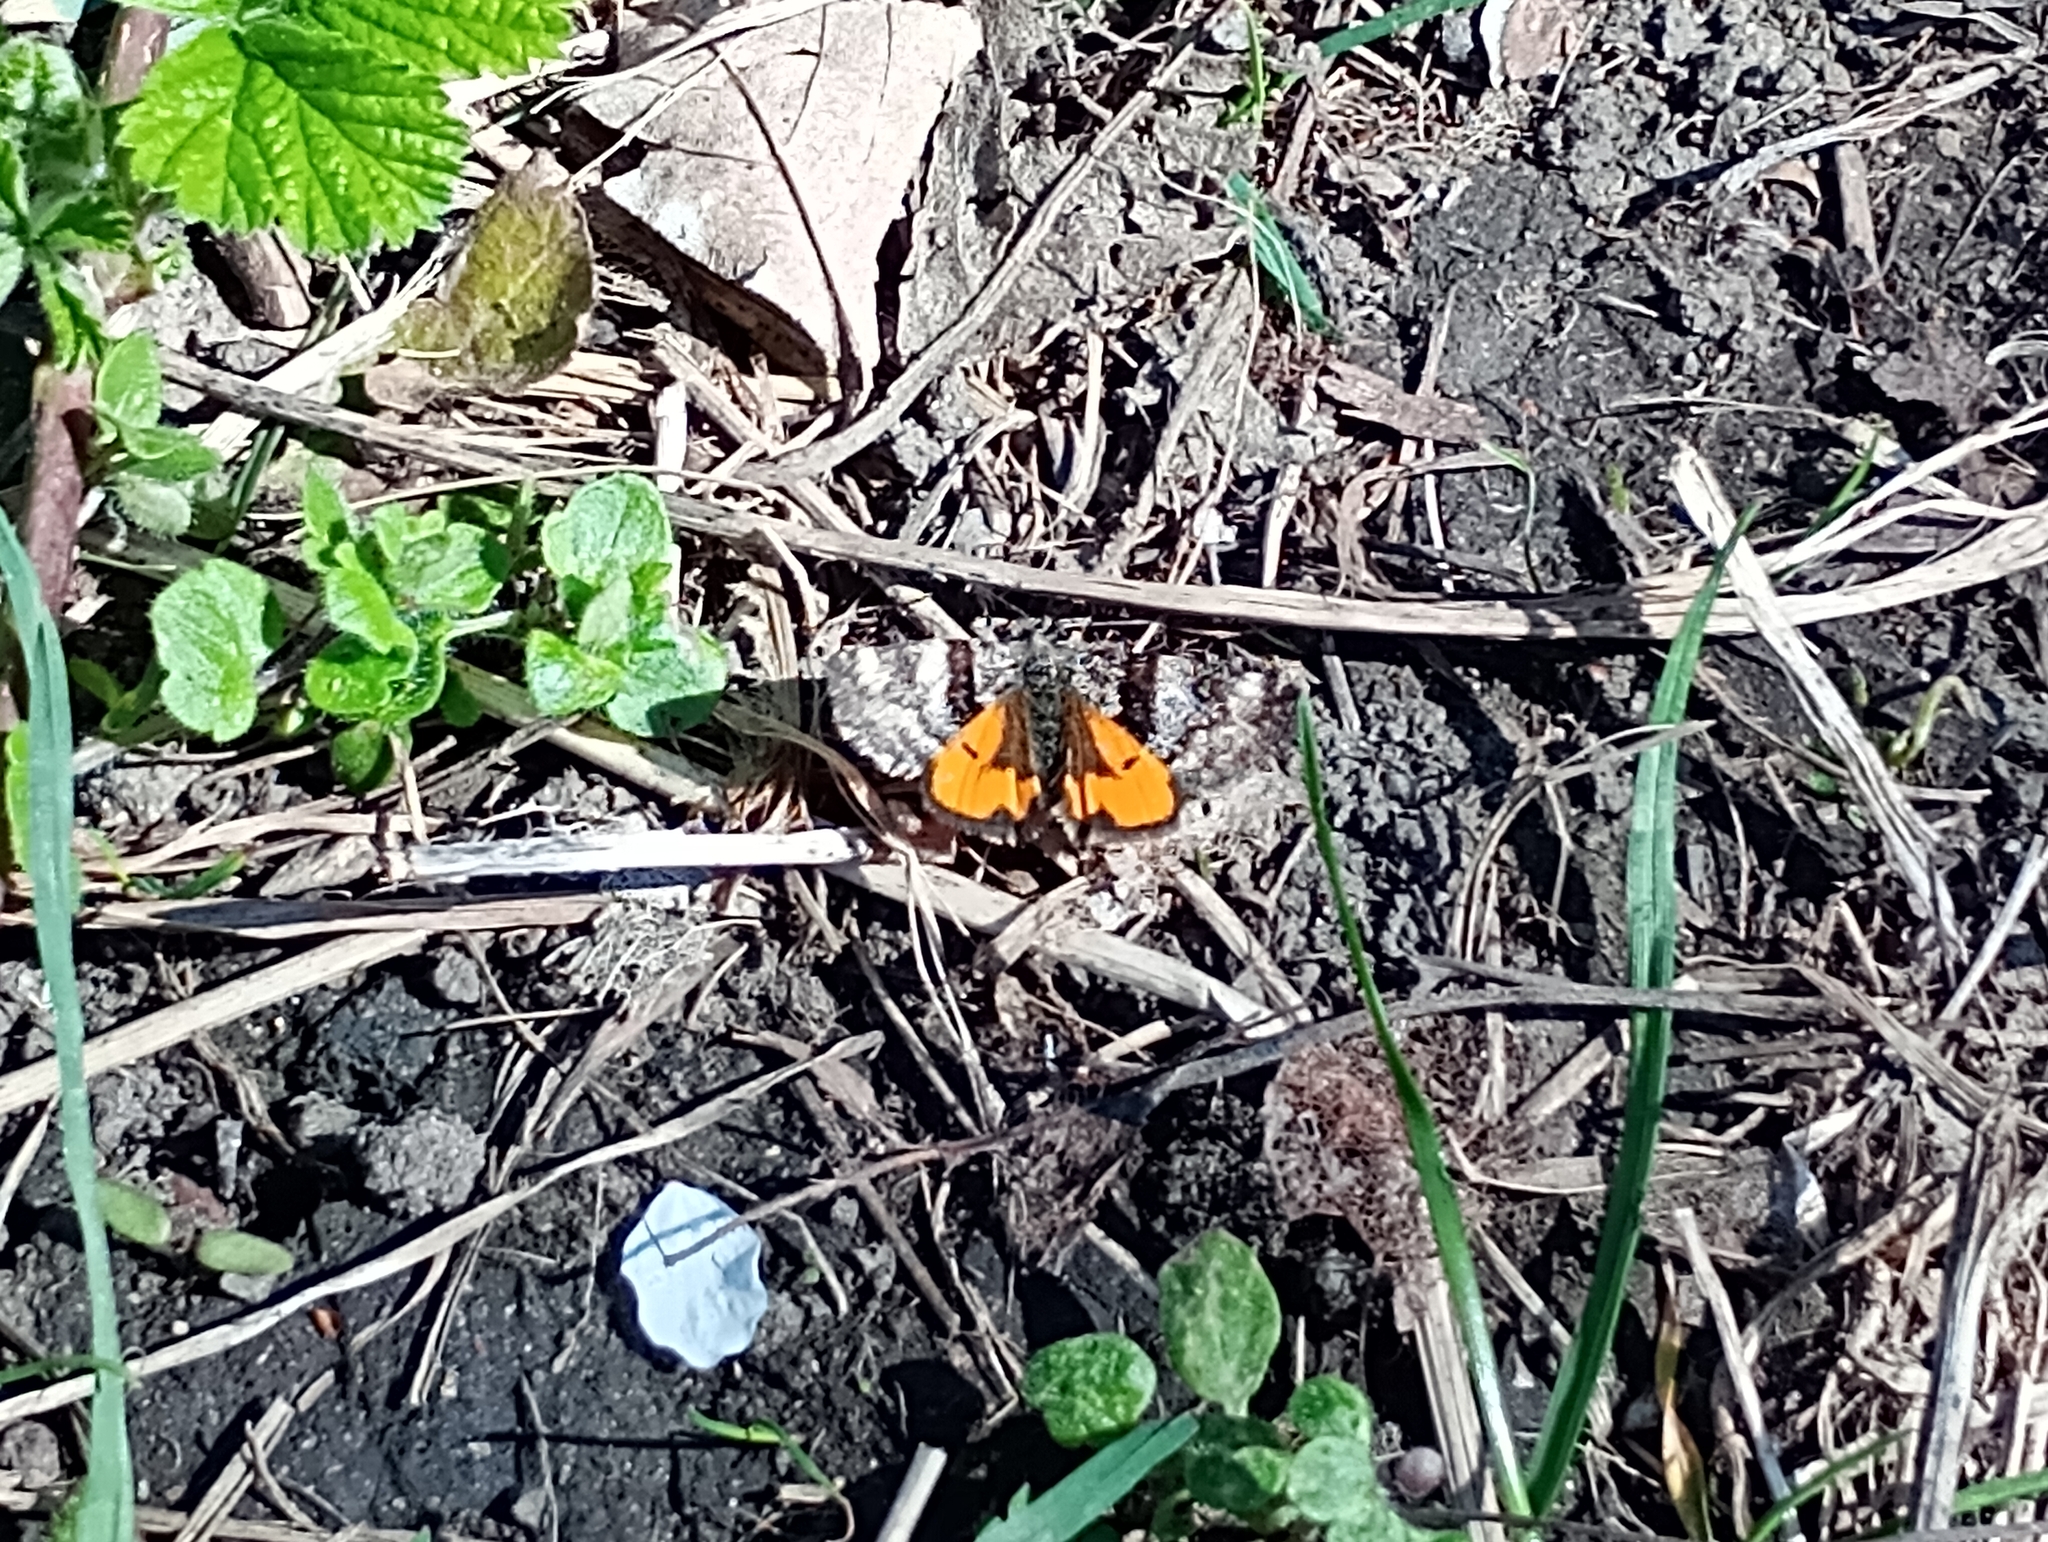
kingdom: Animalia
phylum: Arthropoda
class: Insecta
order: Lepidoptera
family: Geometridae
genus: Archiearis
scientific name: Archiearis parthenias
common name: Orange underwing
